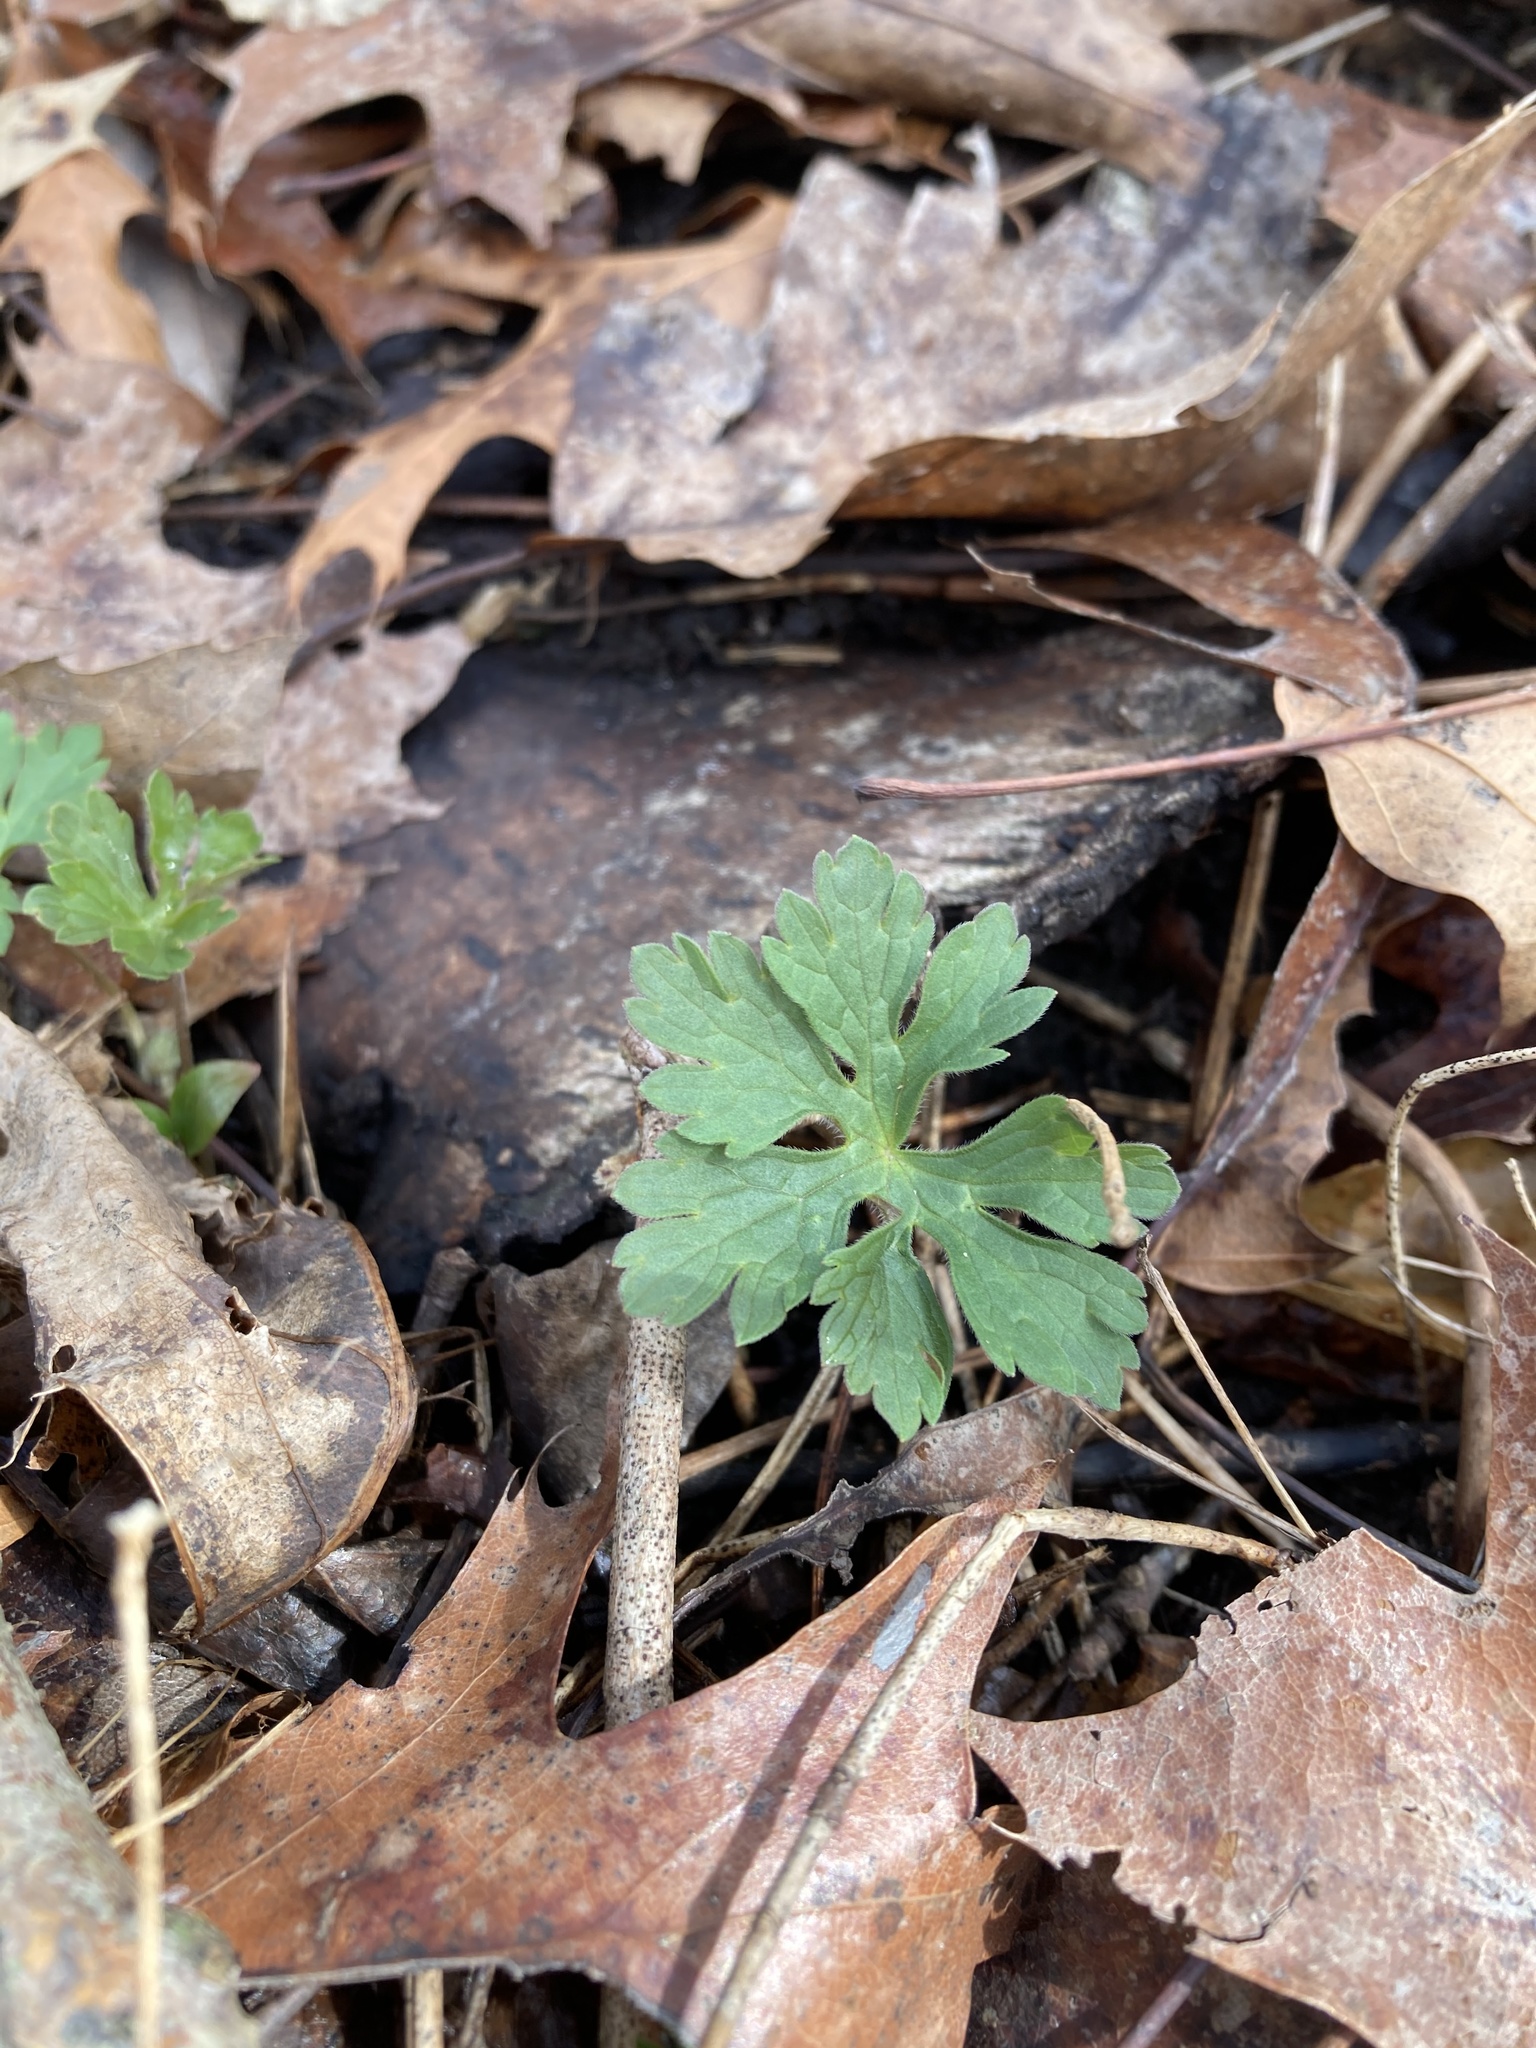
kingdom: Plantae
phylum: Tracheophyta
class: Magnoliopsida
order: Geraniales
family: Geraniaceae
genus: Geranium
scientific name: Geranium maculatum
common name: Spotted geranium
